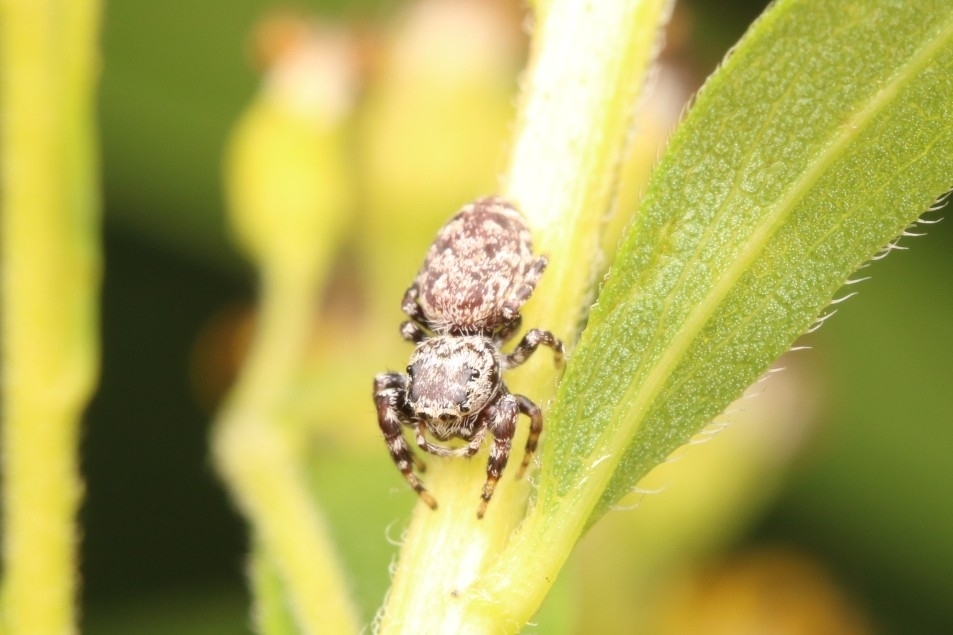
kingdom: Animalia
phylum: Arthropoda
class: Arachnida
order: Araneae
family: Salticidae
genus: Pelegrina
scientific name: Pelegrina galathea
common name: Jumping spiders
